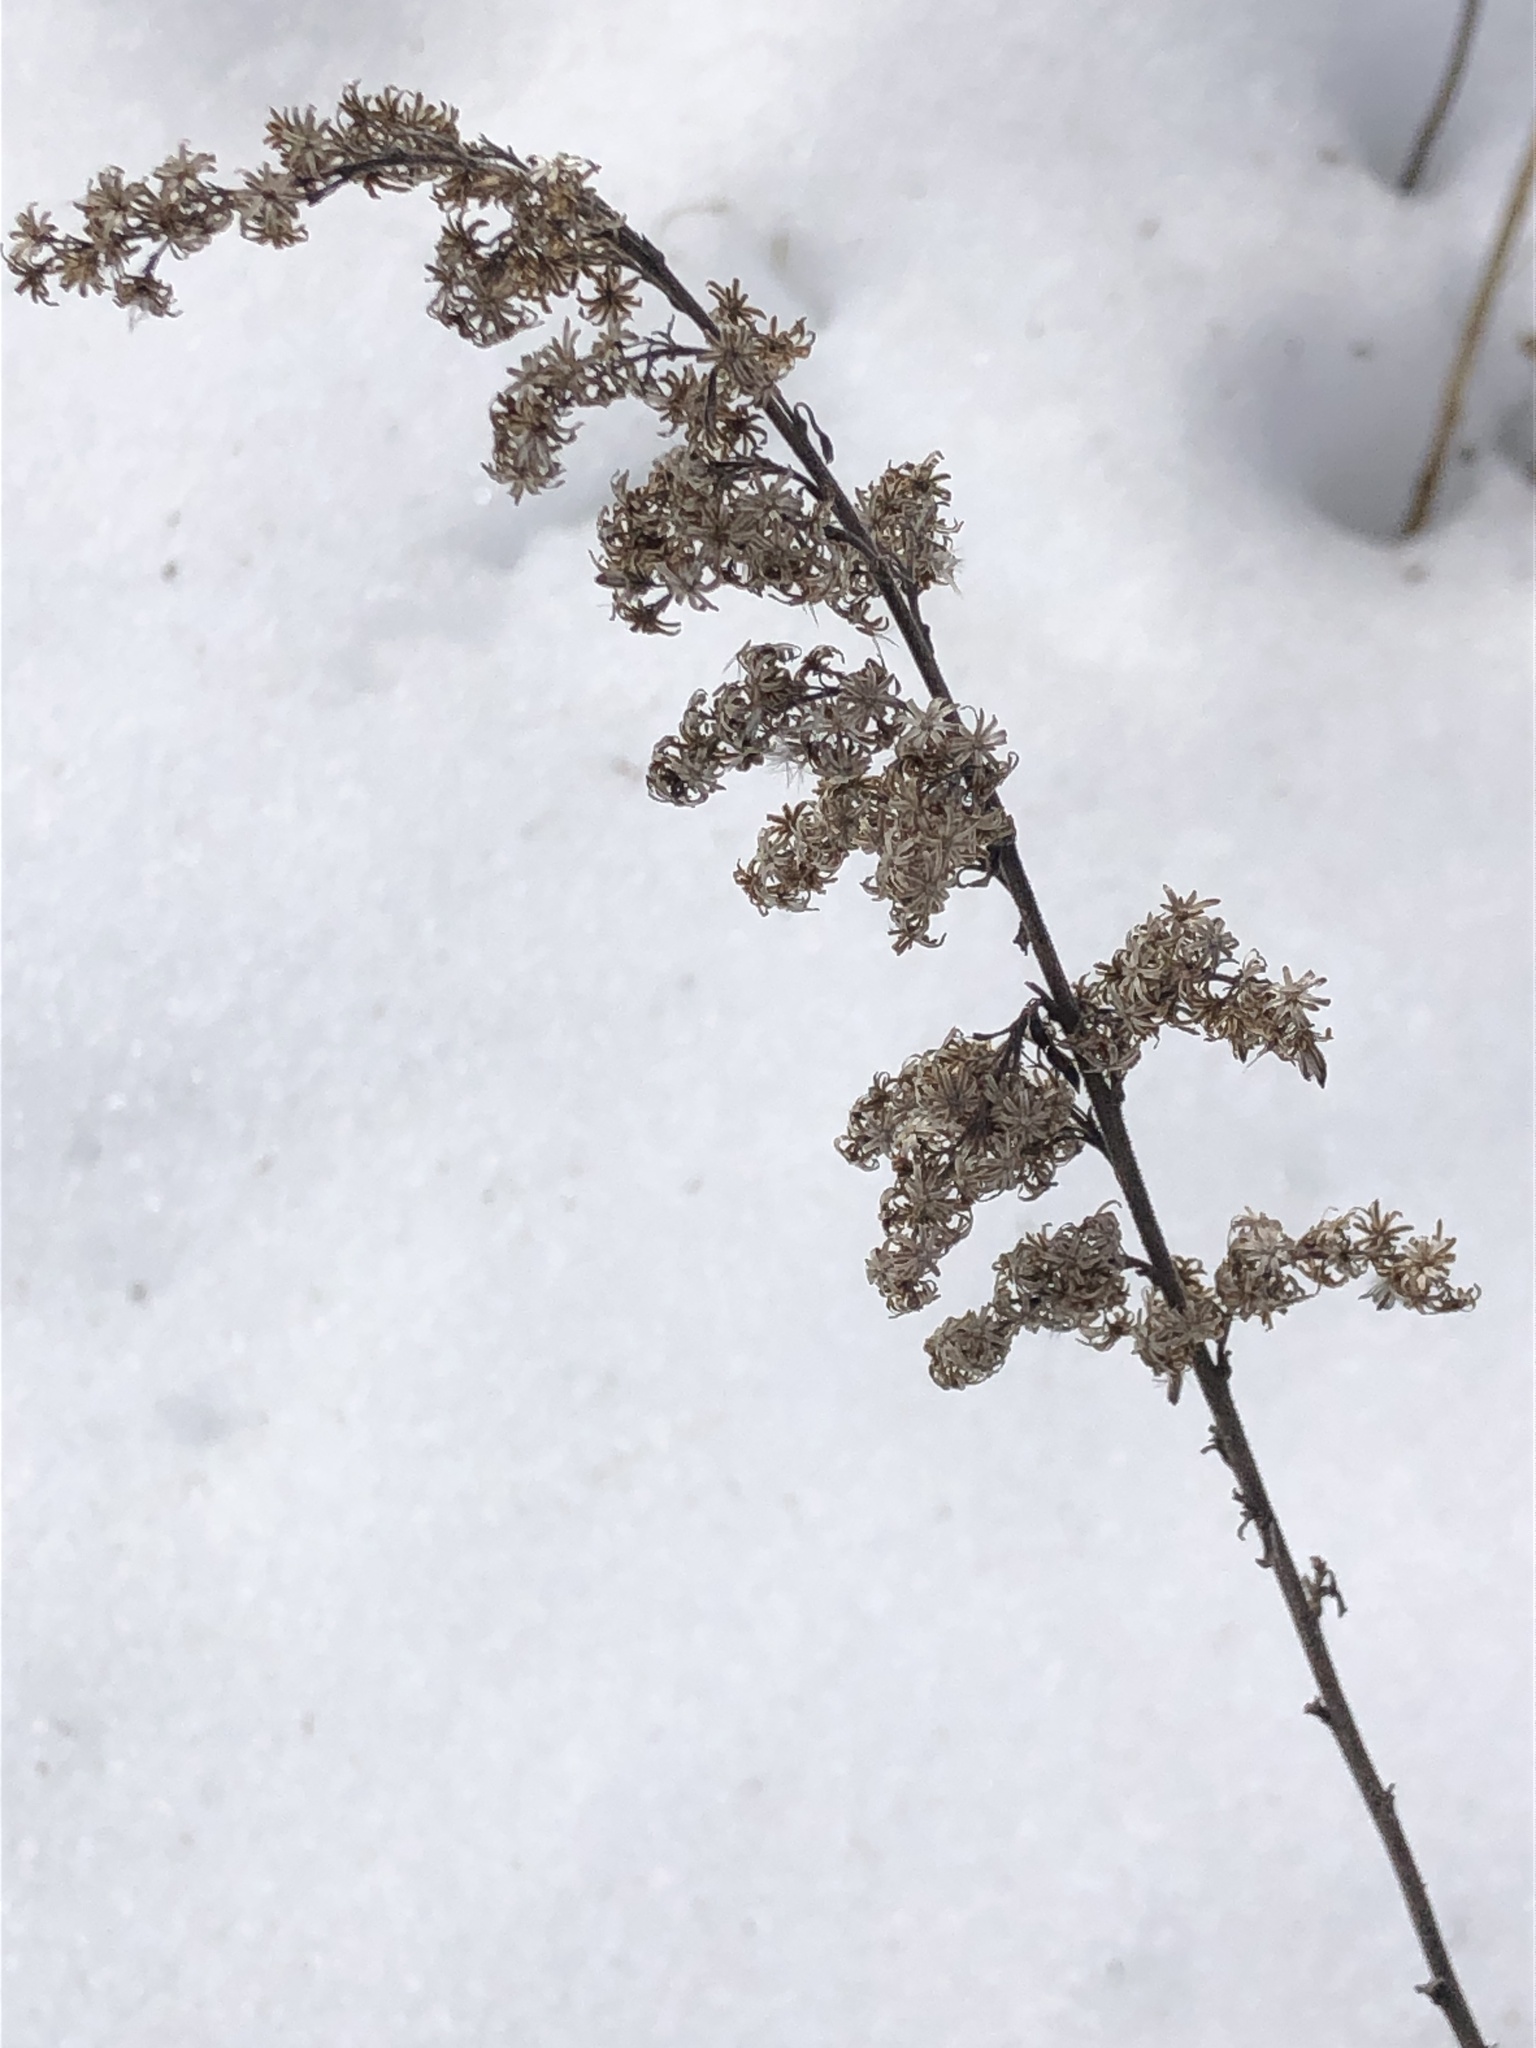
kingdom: Plantae
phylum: Tracheophyta
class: Magnoliopsida
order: Asterales
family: Asteraceae
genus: Solidago
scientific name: Solidago nemoralis
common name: Grey goldenrod
